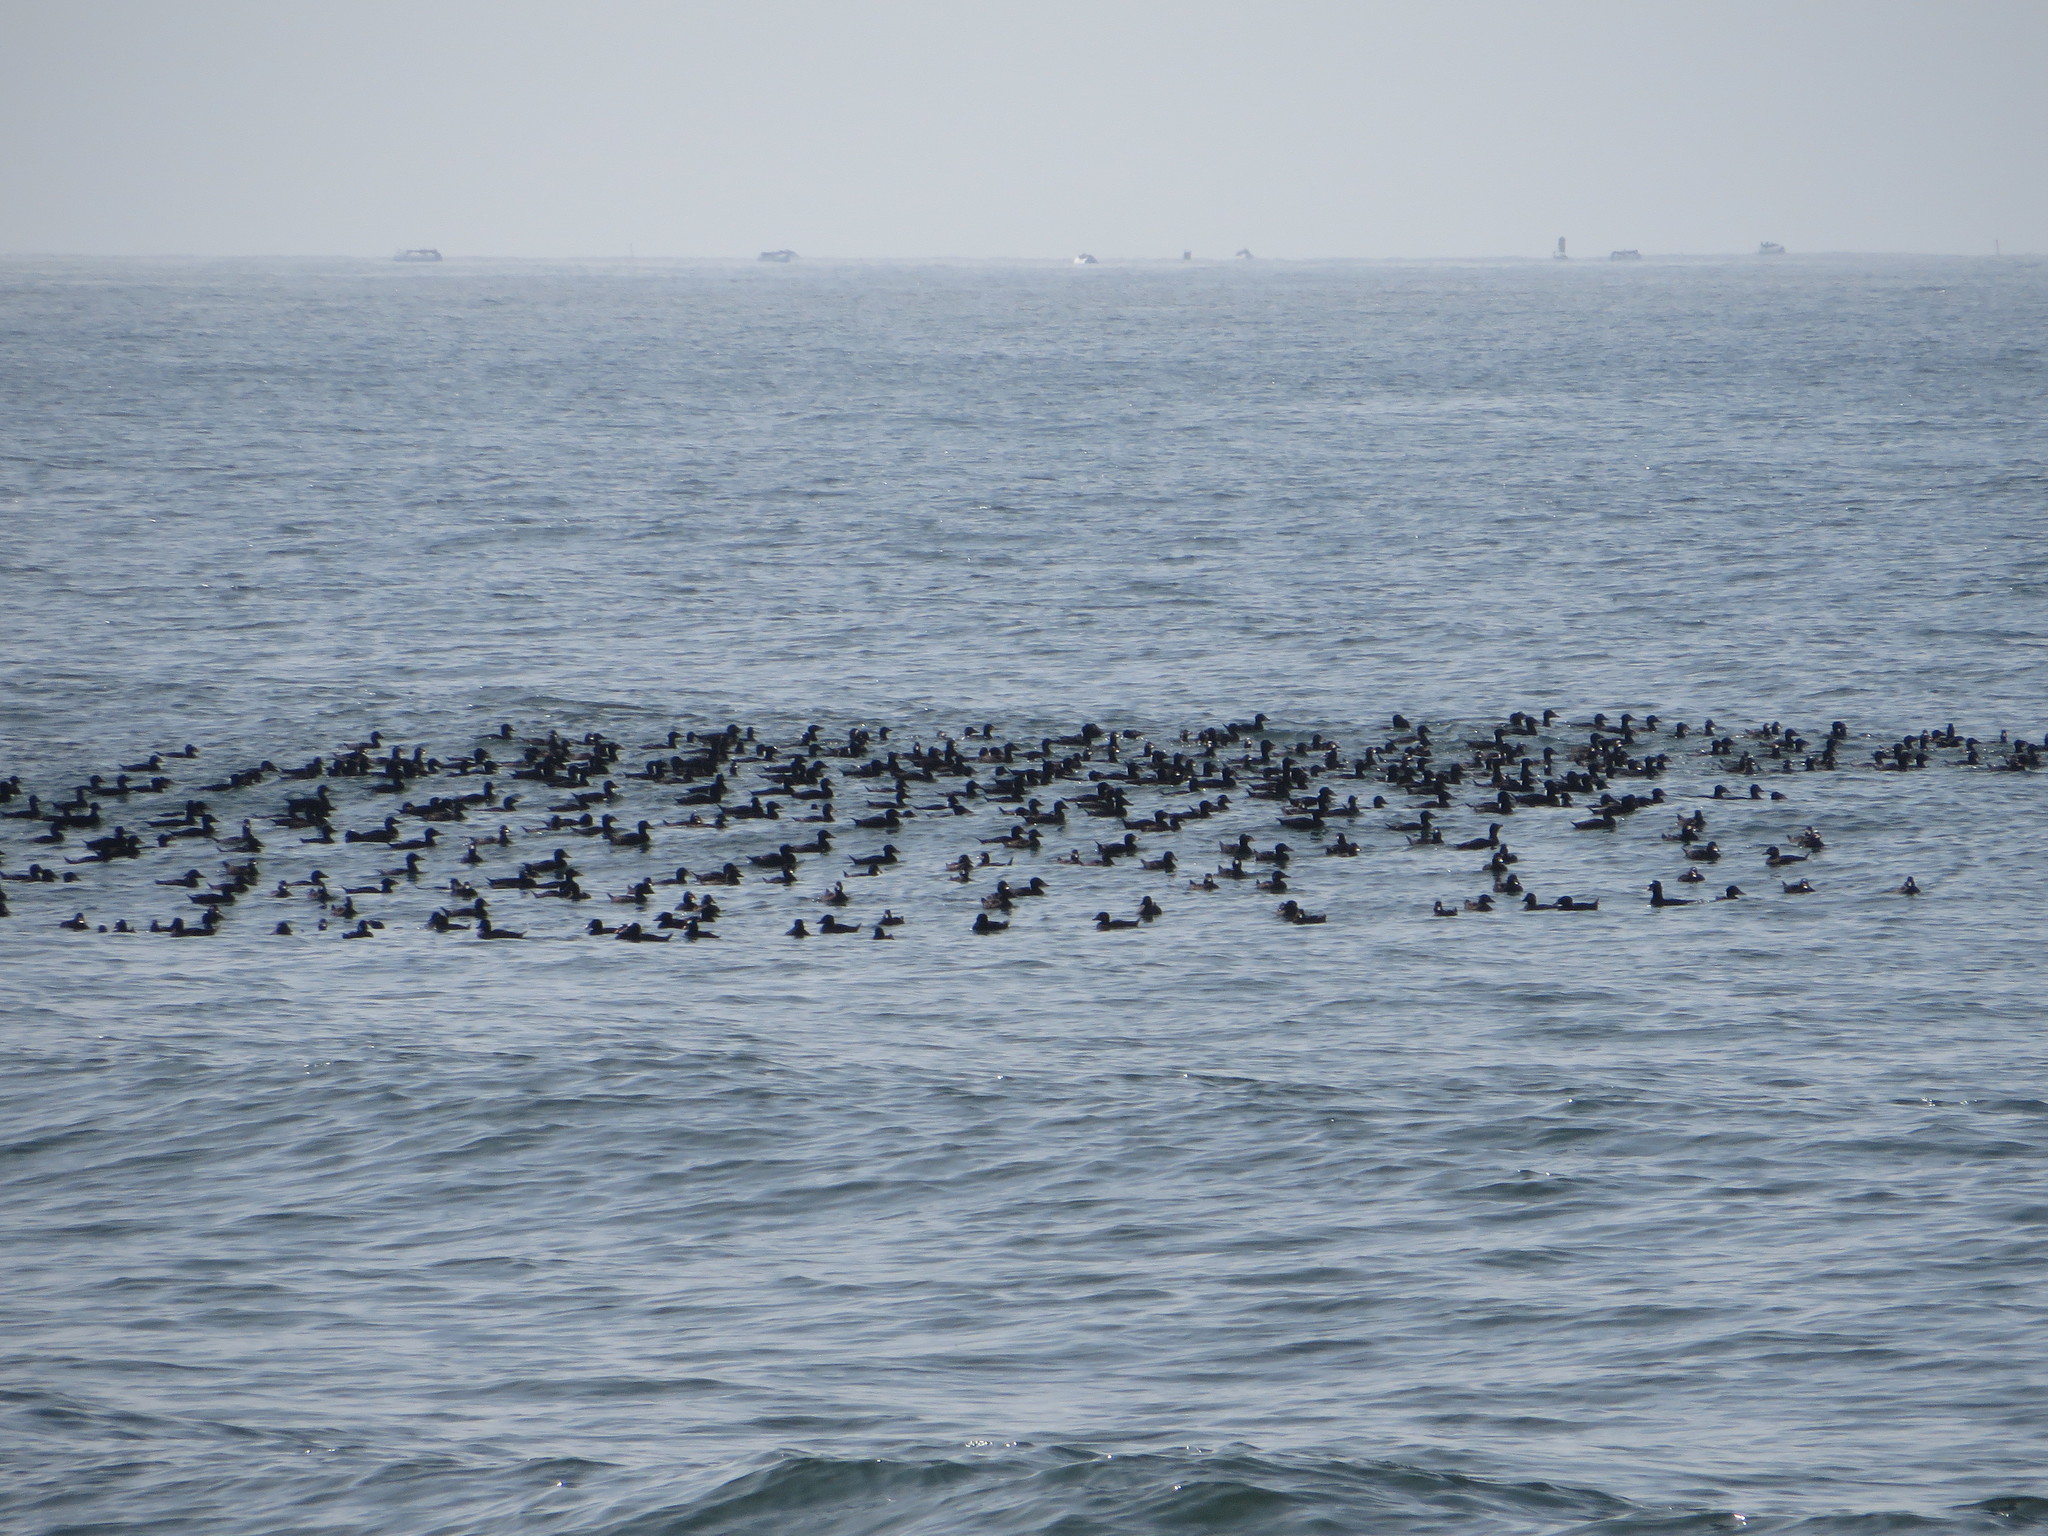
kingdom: Animalia
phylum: Chordata
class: Aves
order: Anseriformes
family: Anatidae
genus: Melanitta
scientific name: Melanitta perspicillata
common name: Surf scoter
